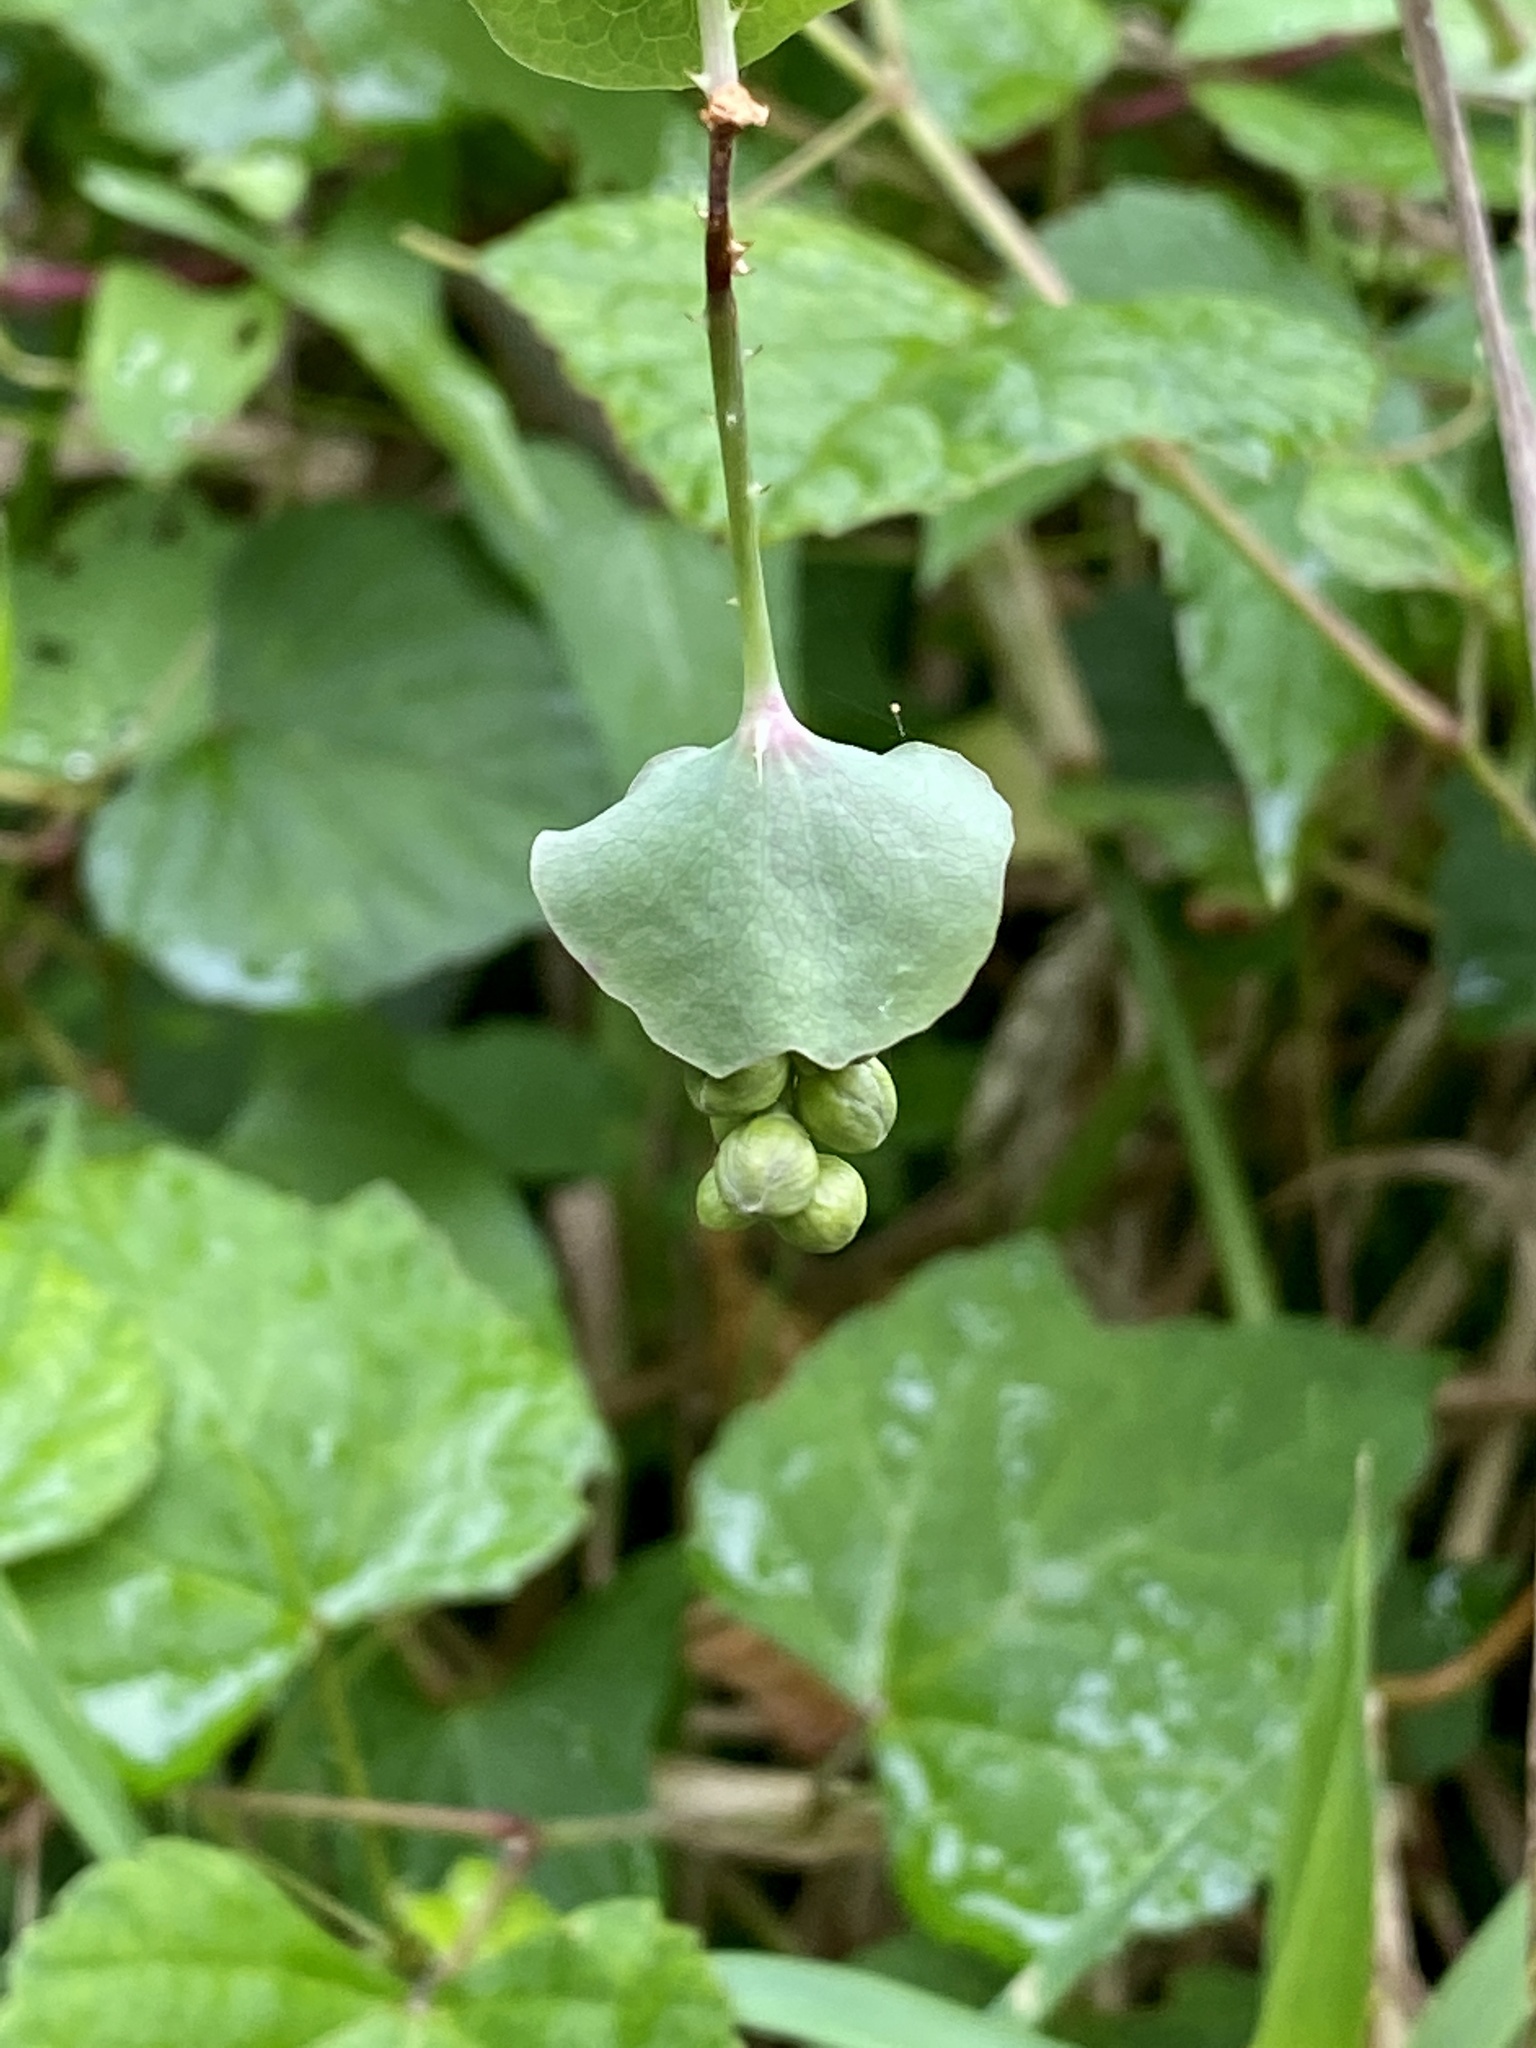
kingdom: Plantae
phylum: Tracheophyta
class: Magnoliopsida
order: Caryophyllales
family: Polygonaceae
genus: Persicaria
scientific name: Persicaria perfoliata
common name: Asiatic tearthumb
